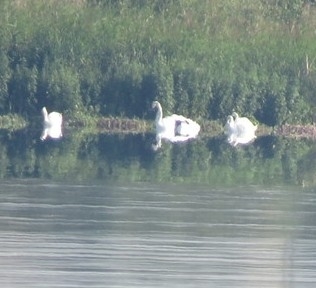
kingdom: Animalia
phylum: Chordata
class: Aves
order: Anseriformes
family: Anatidae
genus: Cygnus
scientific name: Cygnus olor
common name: Mute swan
